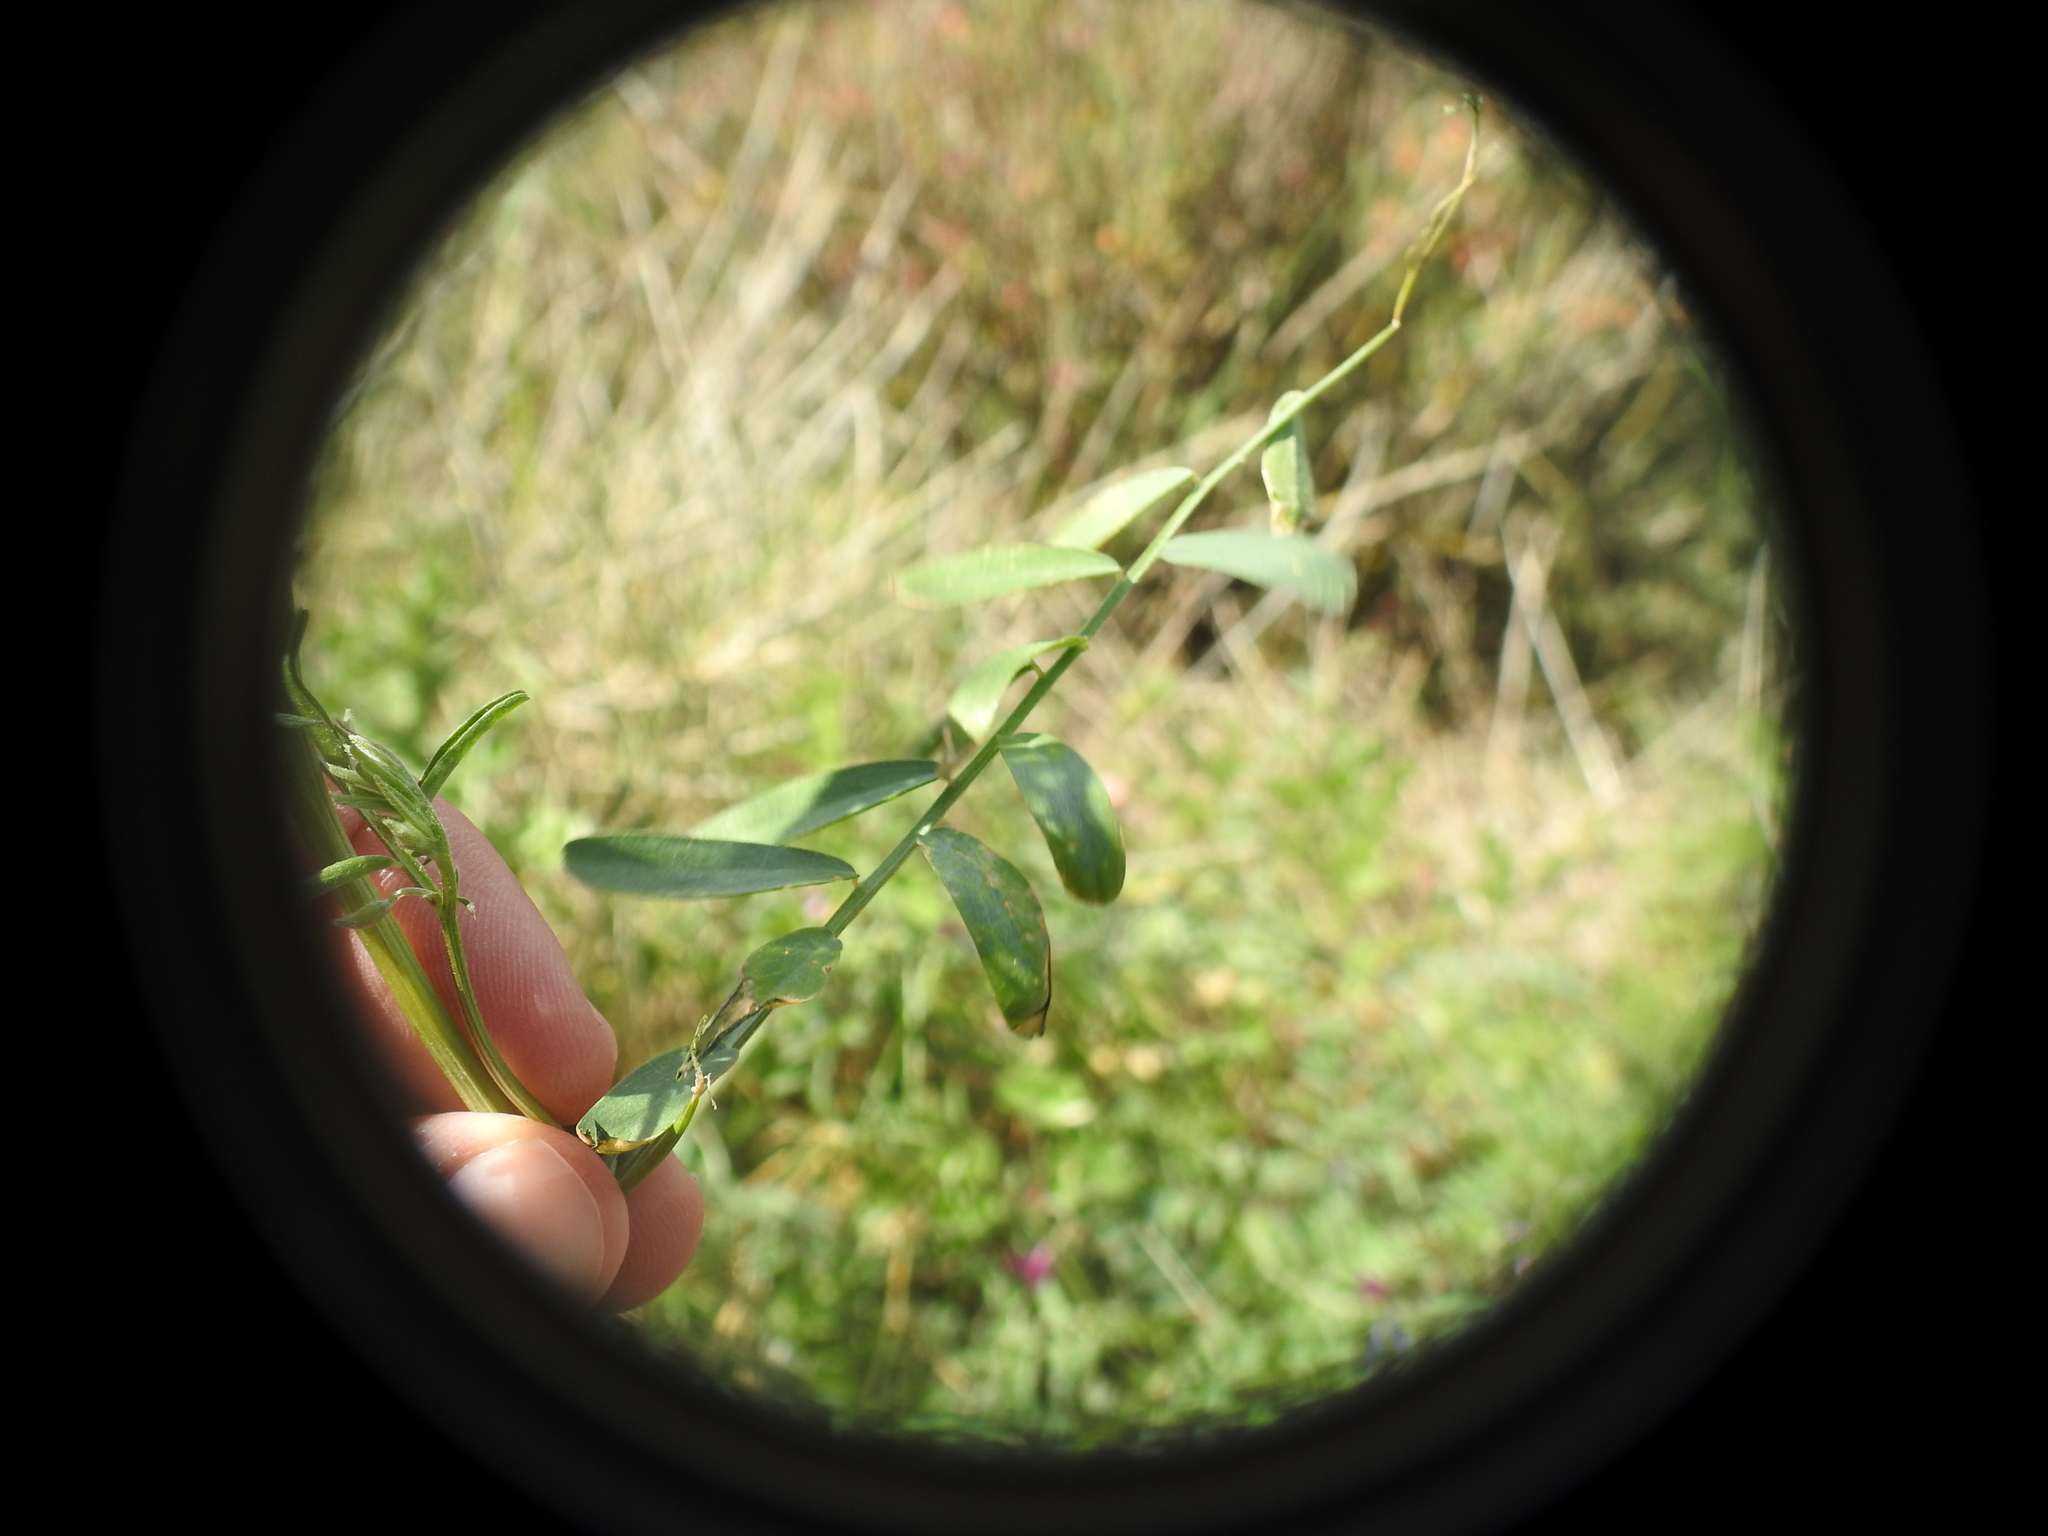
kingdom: Plantae
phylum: Tracheophyta
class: Magnoliopsida
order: Fabales
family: Fabaceae
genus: Vicia
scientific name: Vicia monantha
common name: Barn vetch
